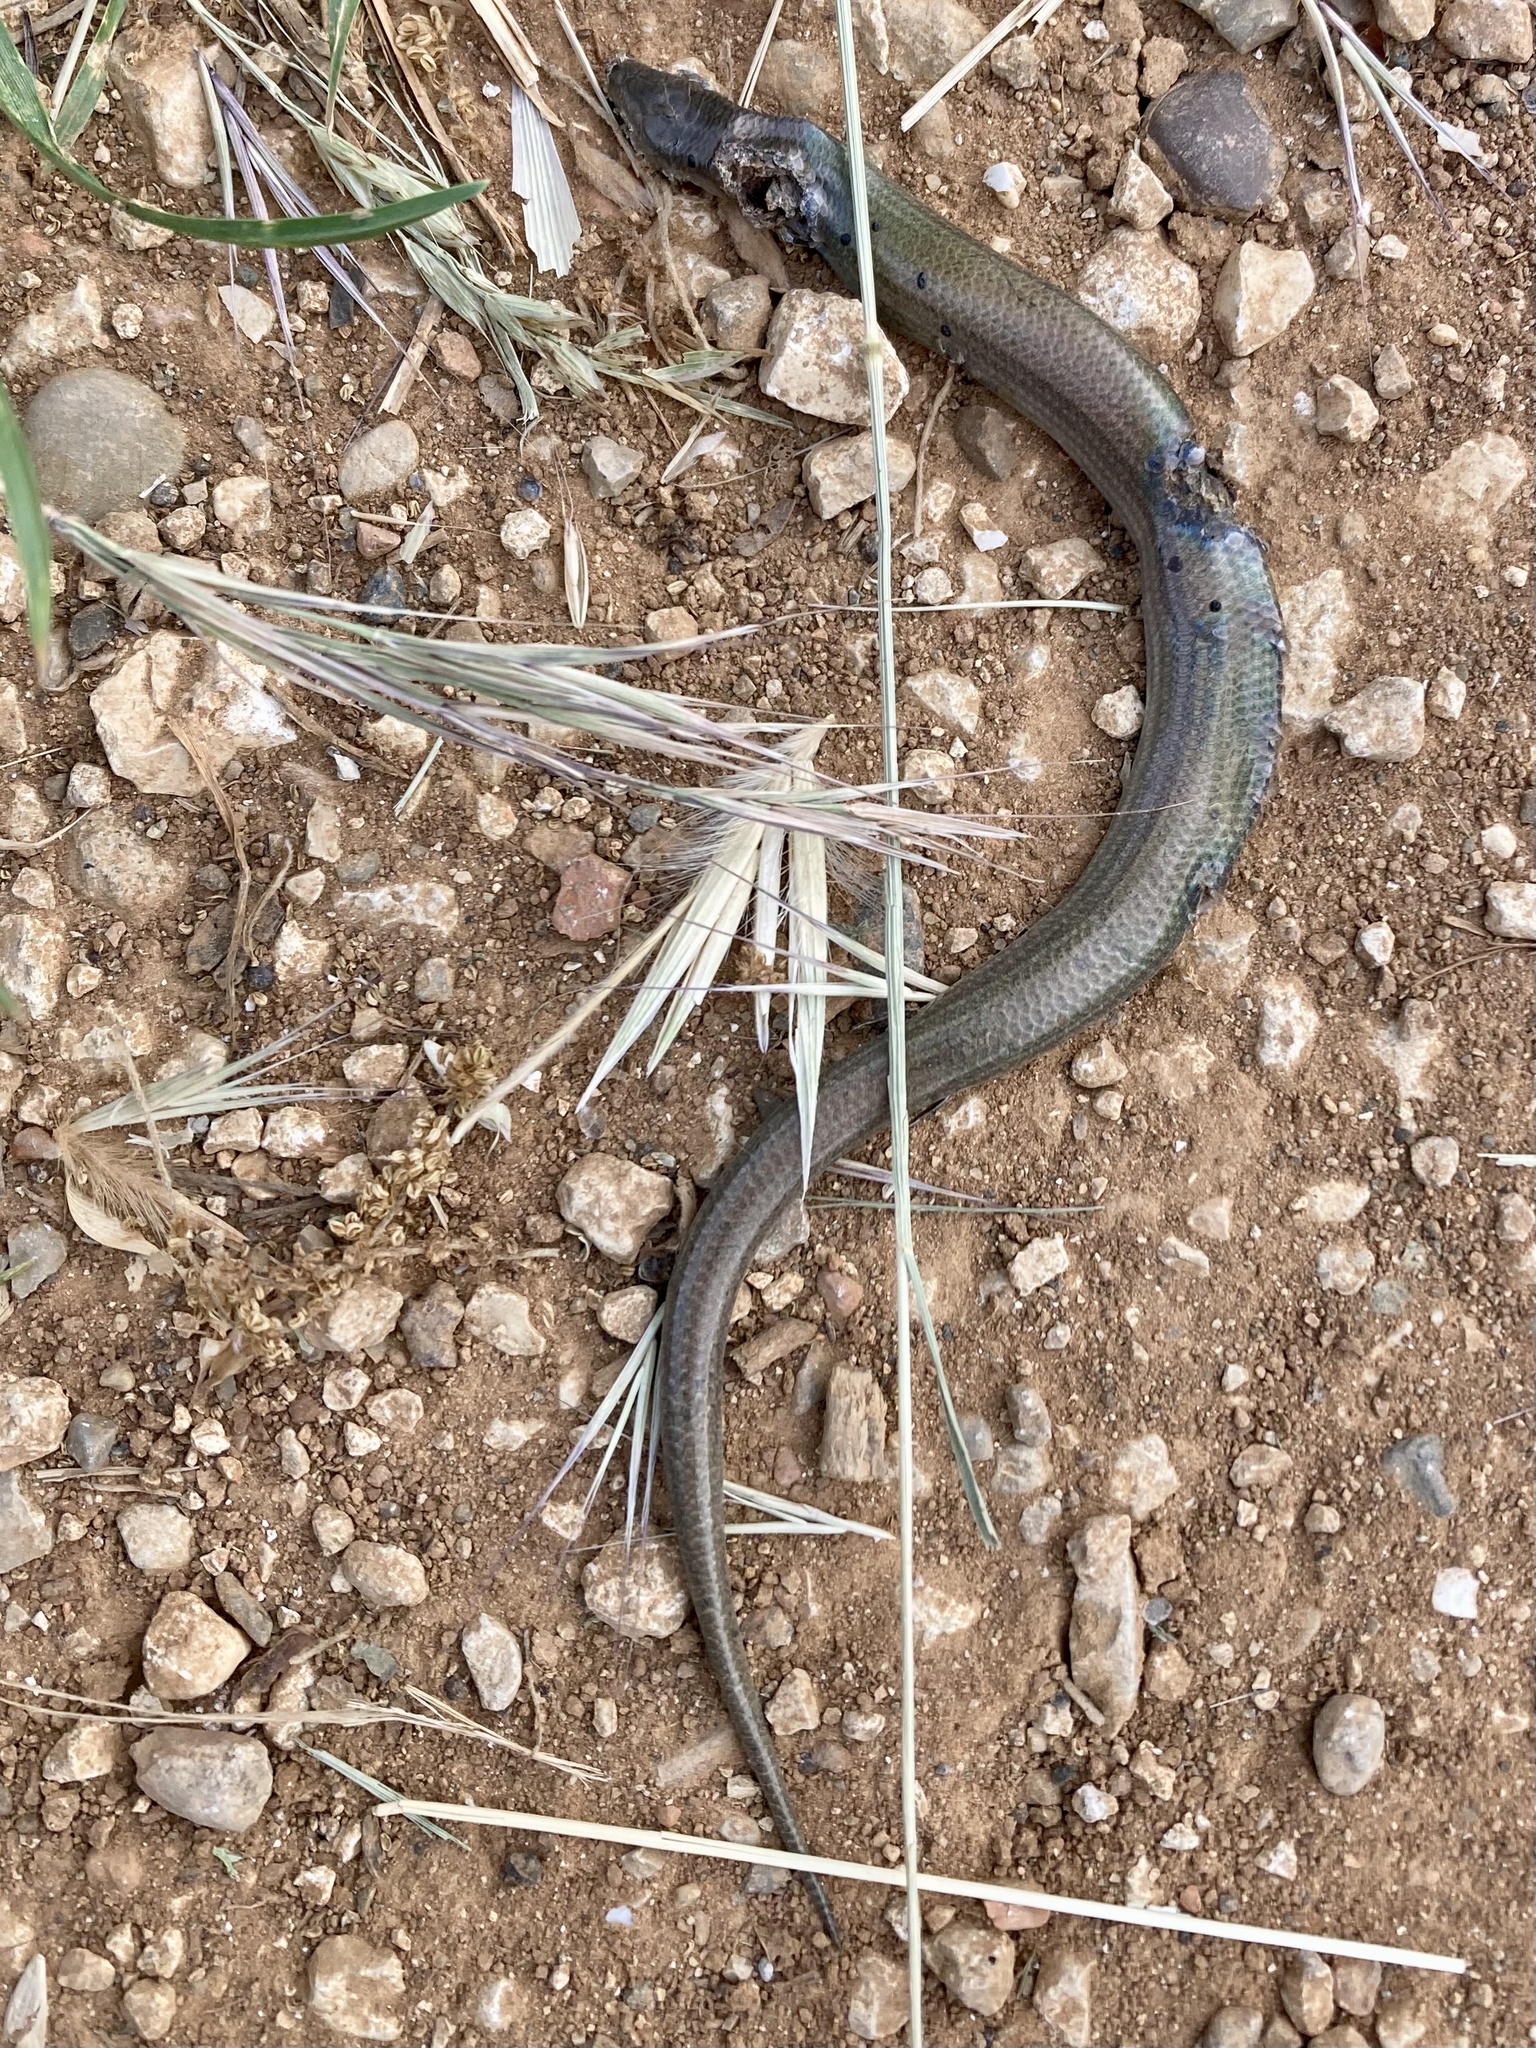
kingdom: Animalia
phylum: Chordata
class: Squamata
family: Scincidae
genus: Chalcides
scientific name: Chalcides chalcides
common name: Italian three-toed skink
